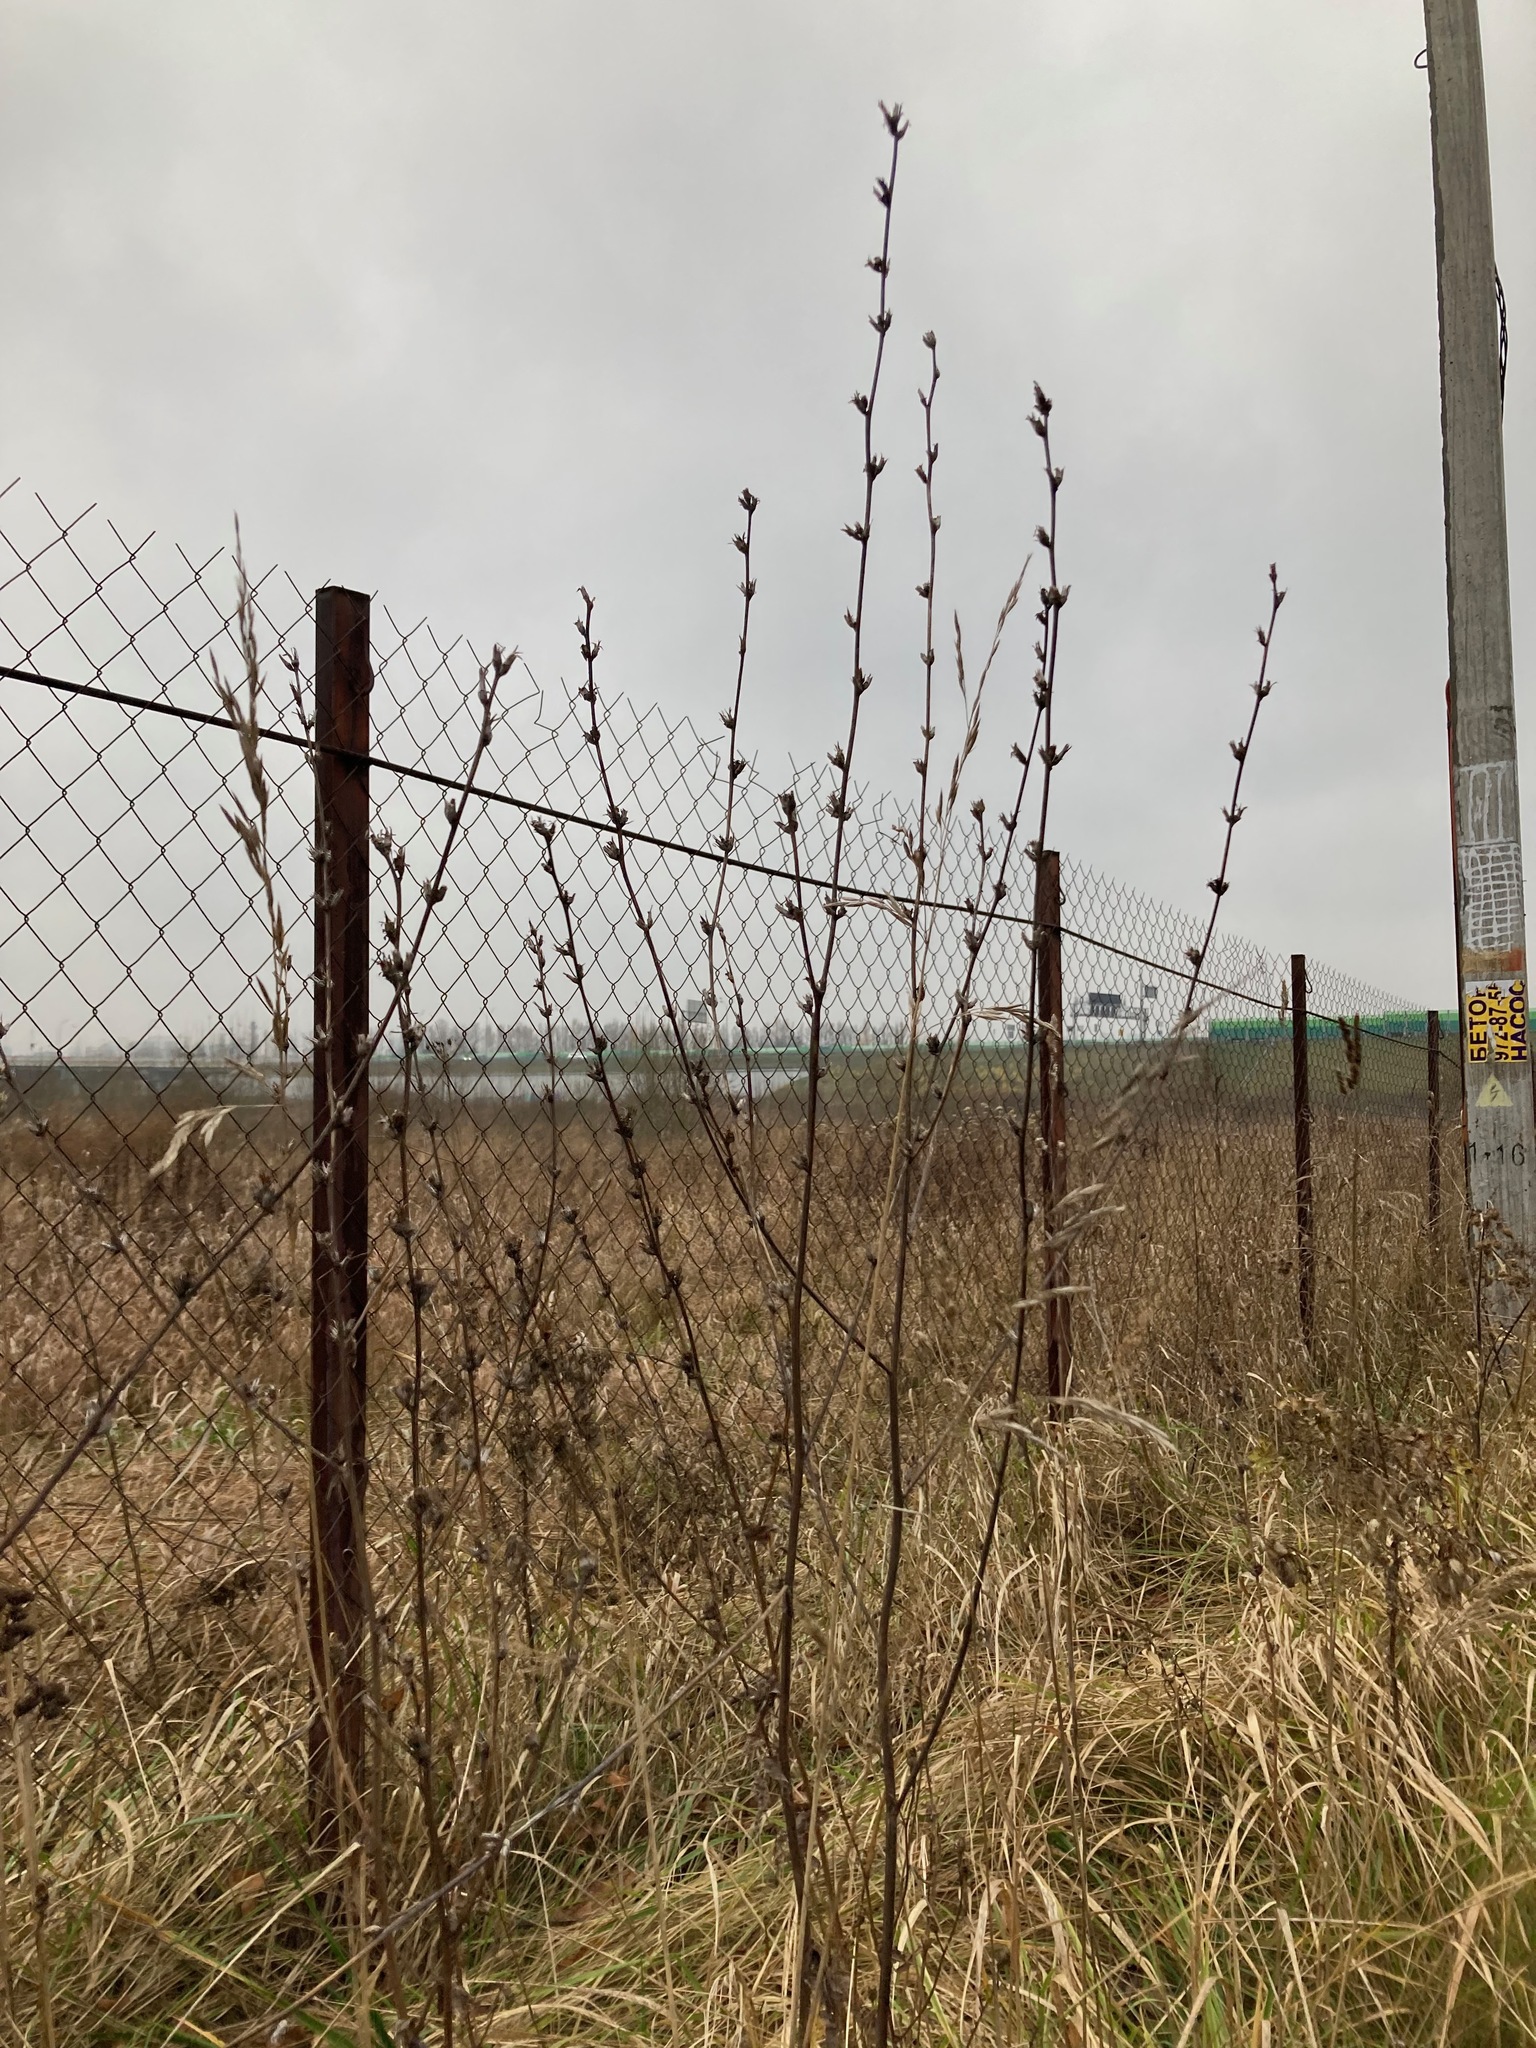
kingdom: Plantae
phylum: Tracheophyta
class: Magnoliopsida
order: Asterales
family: Asteraceae
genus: Cichorium
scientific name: Cichorium intybus
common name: Chicory
